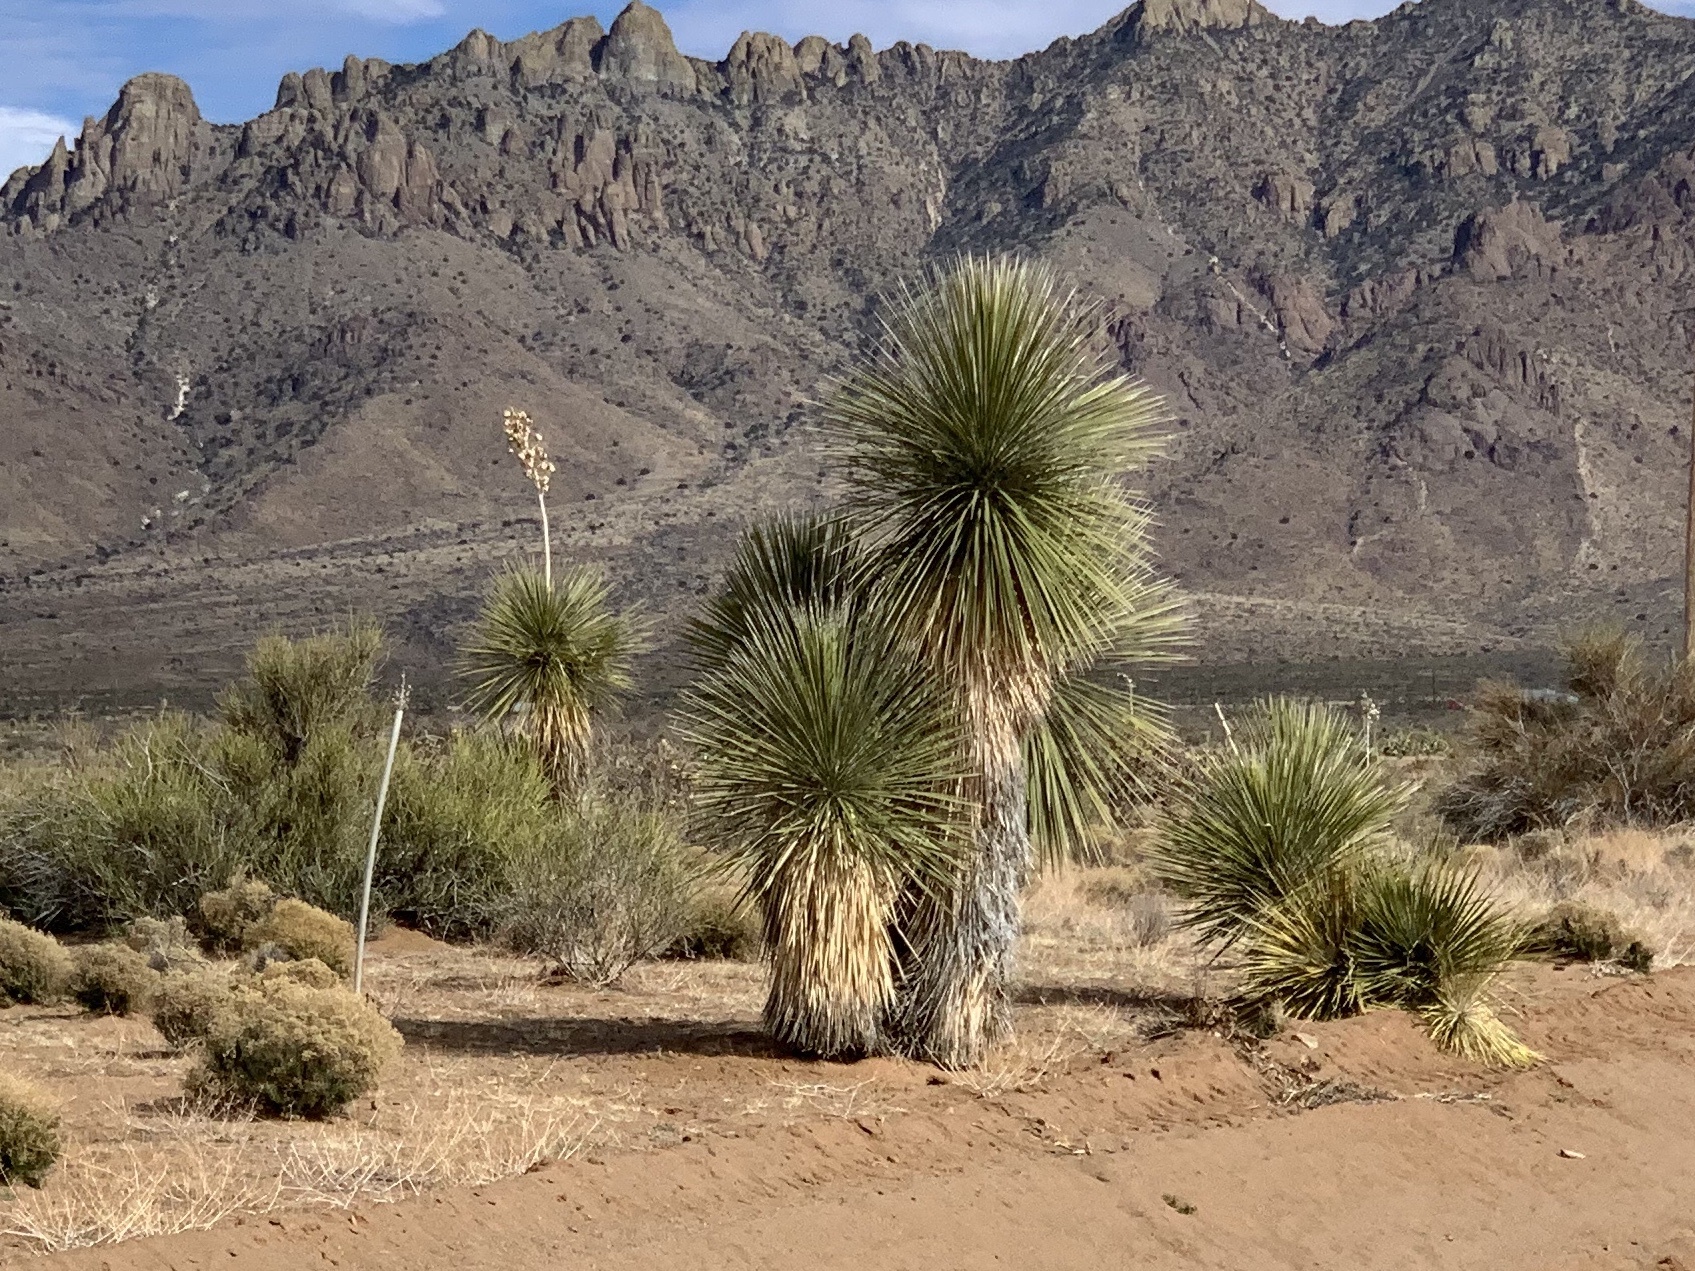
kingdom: Plantae
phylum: Tracheophyta
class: Liliopsida
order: Asparagales
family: Asparagaceae
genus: Yucca
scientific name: Yucca elata
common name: Palmella
